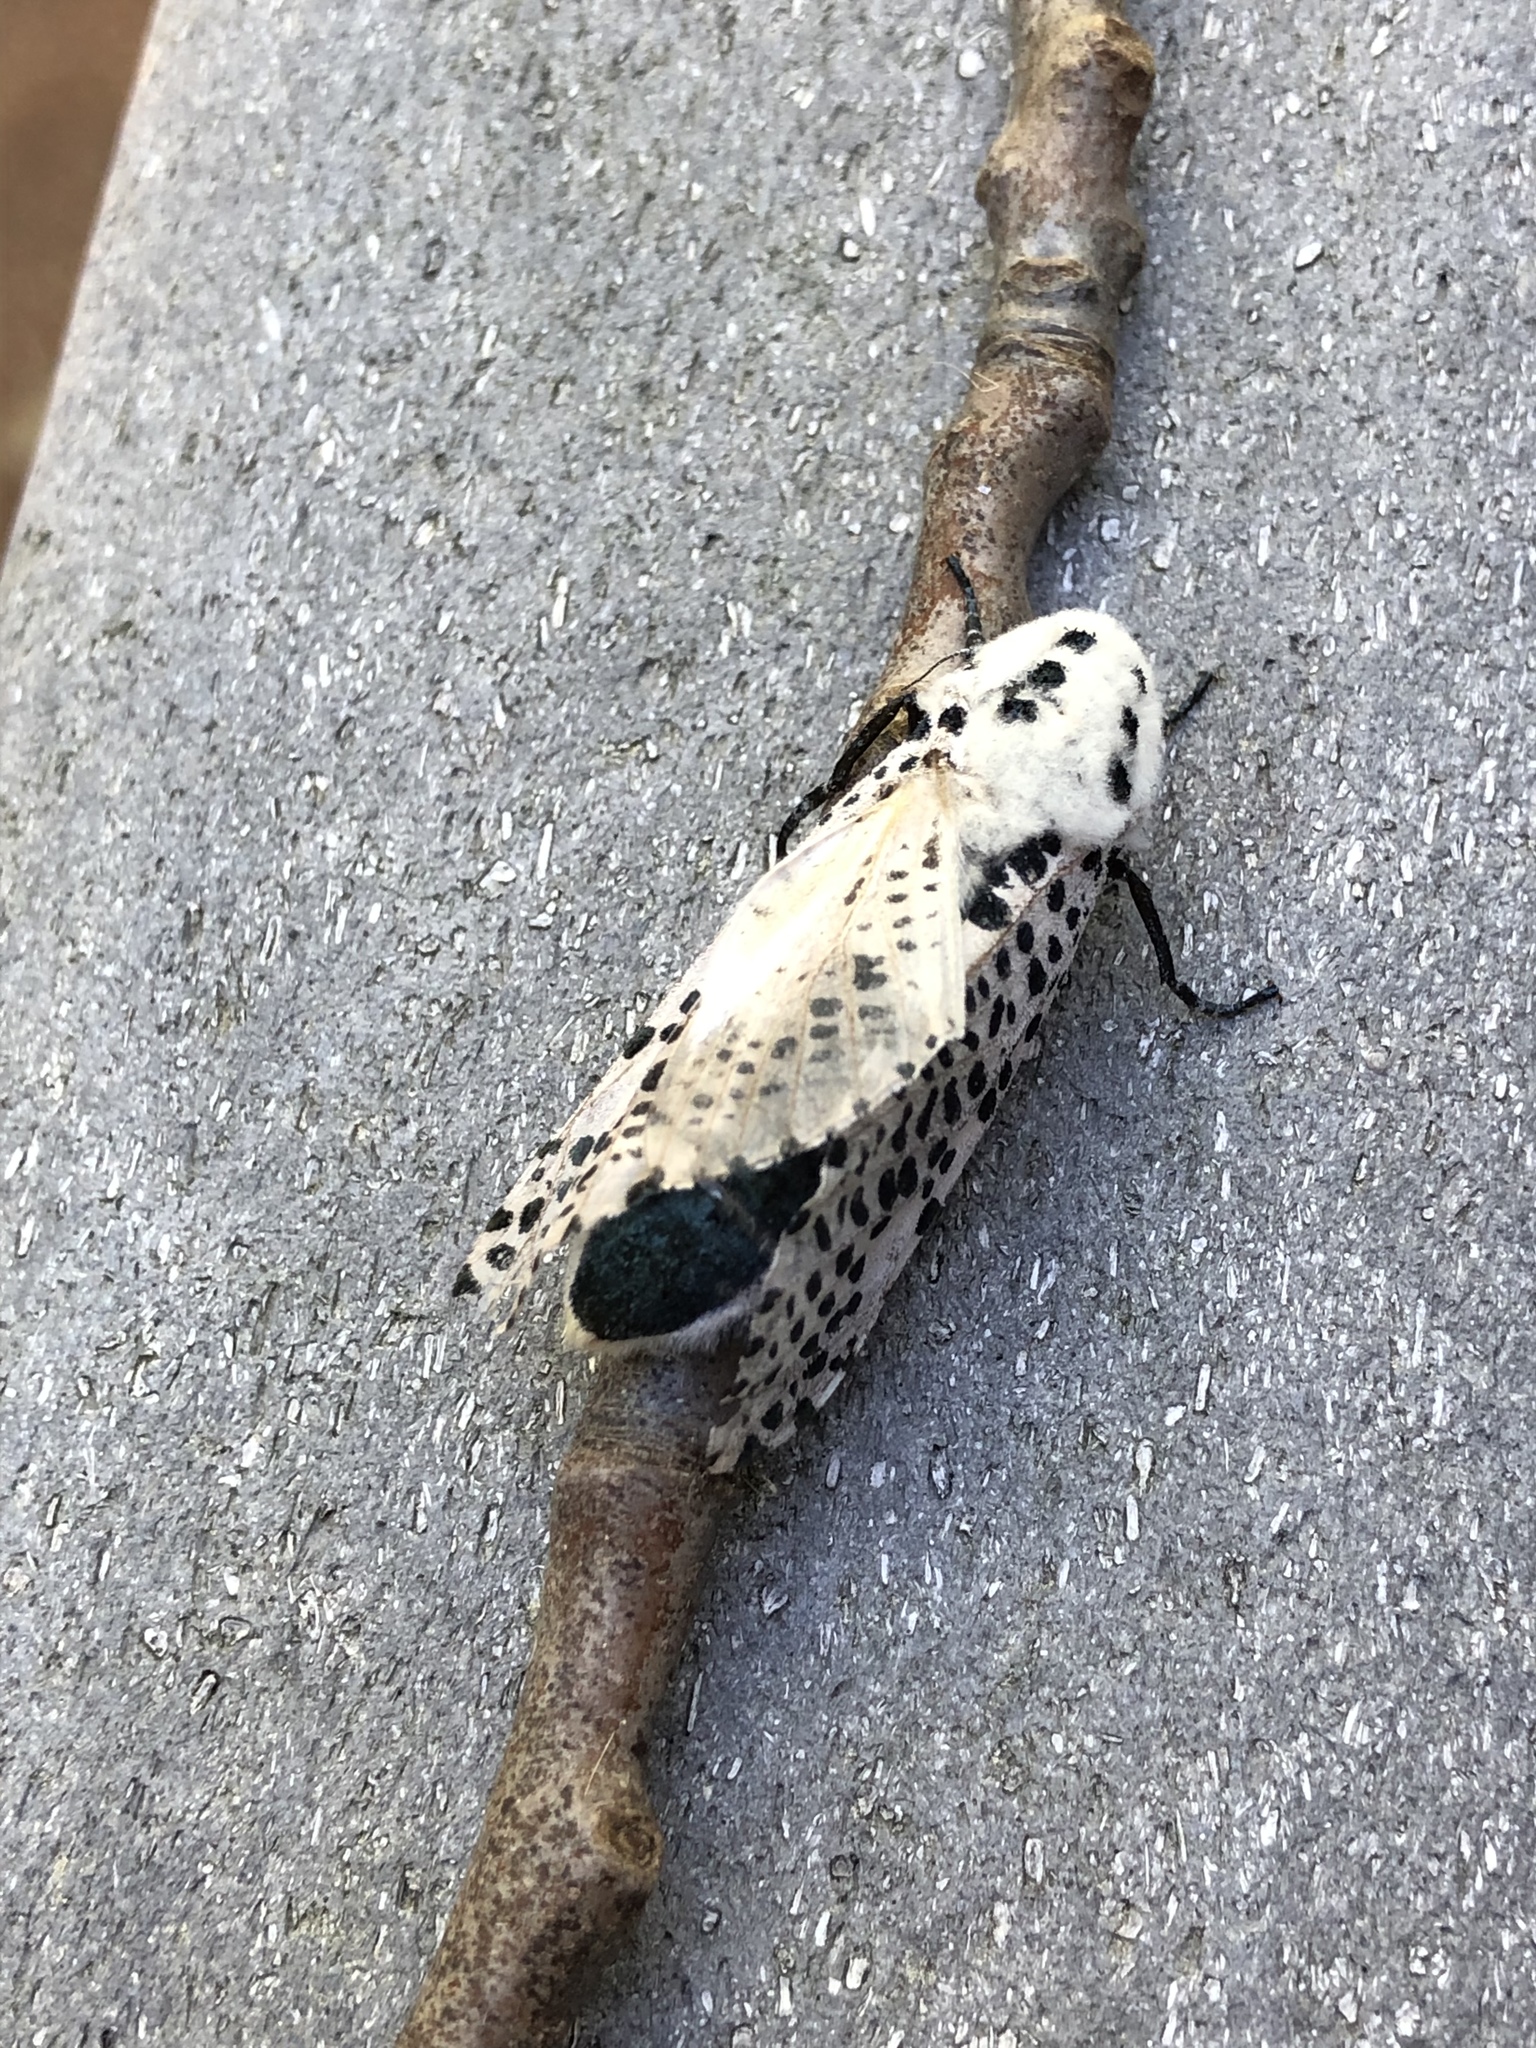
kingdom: Animalia
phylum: Arthropoda
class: Insecta
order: Lepidoptera
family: Cossidae
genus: Zeuzera
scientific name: Zeuzera pyrina
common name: Leopard moth
